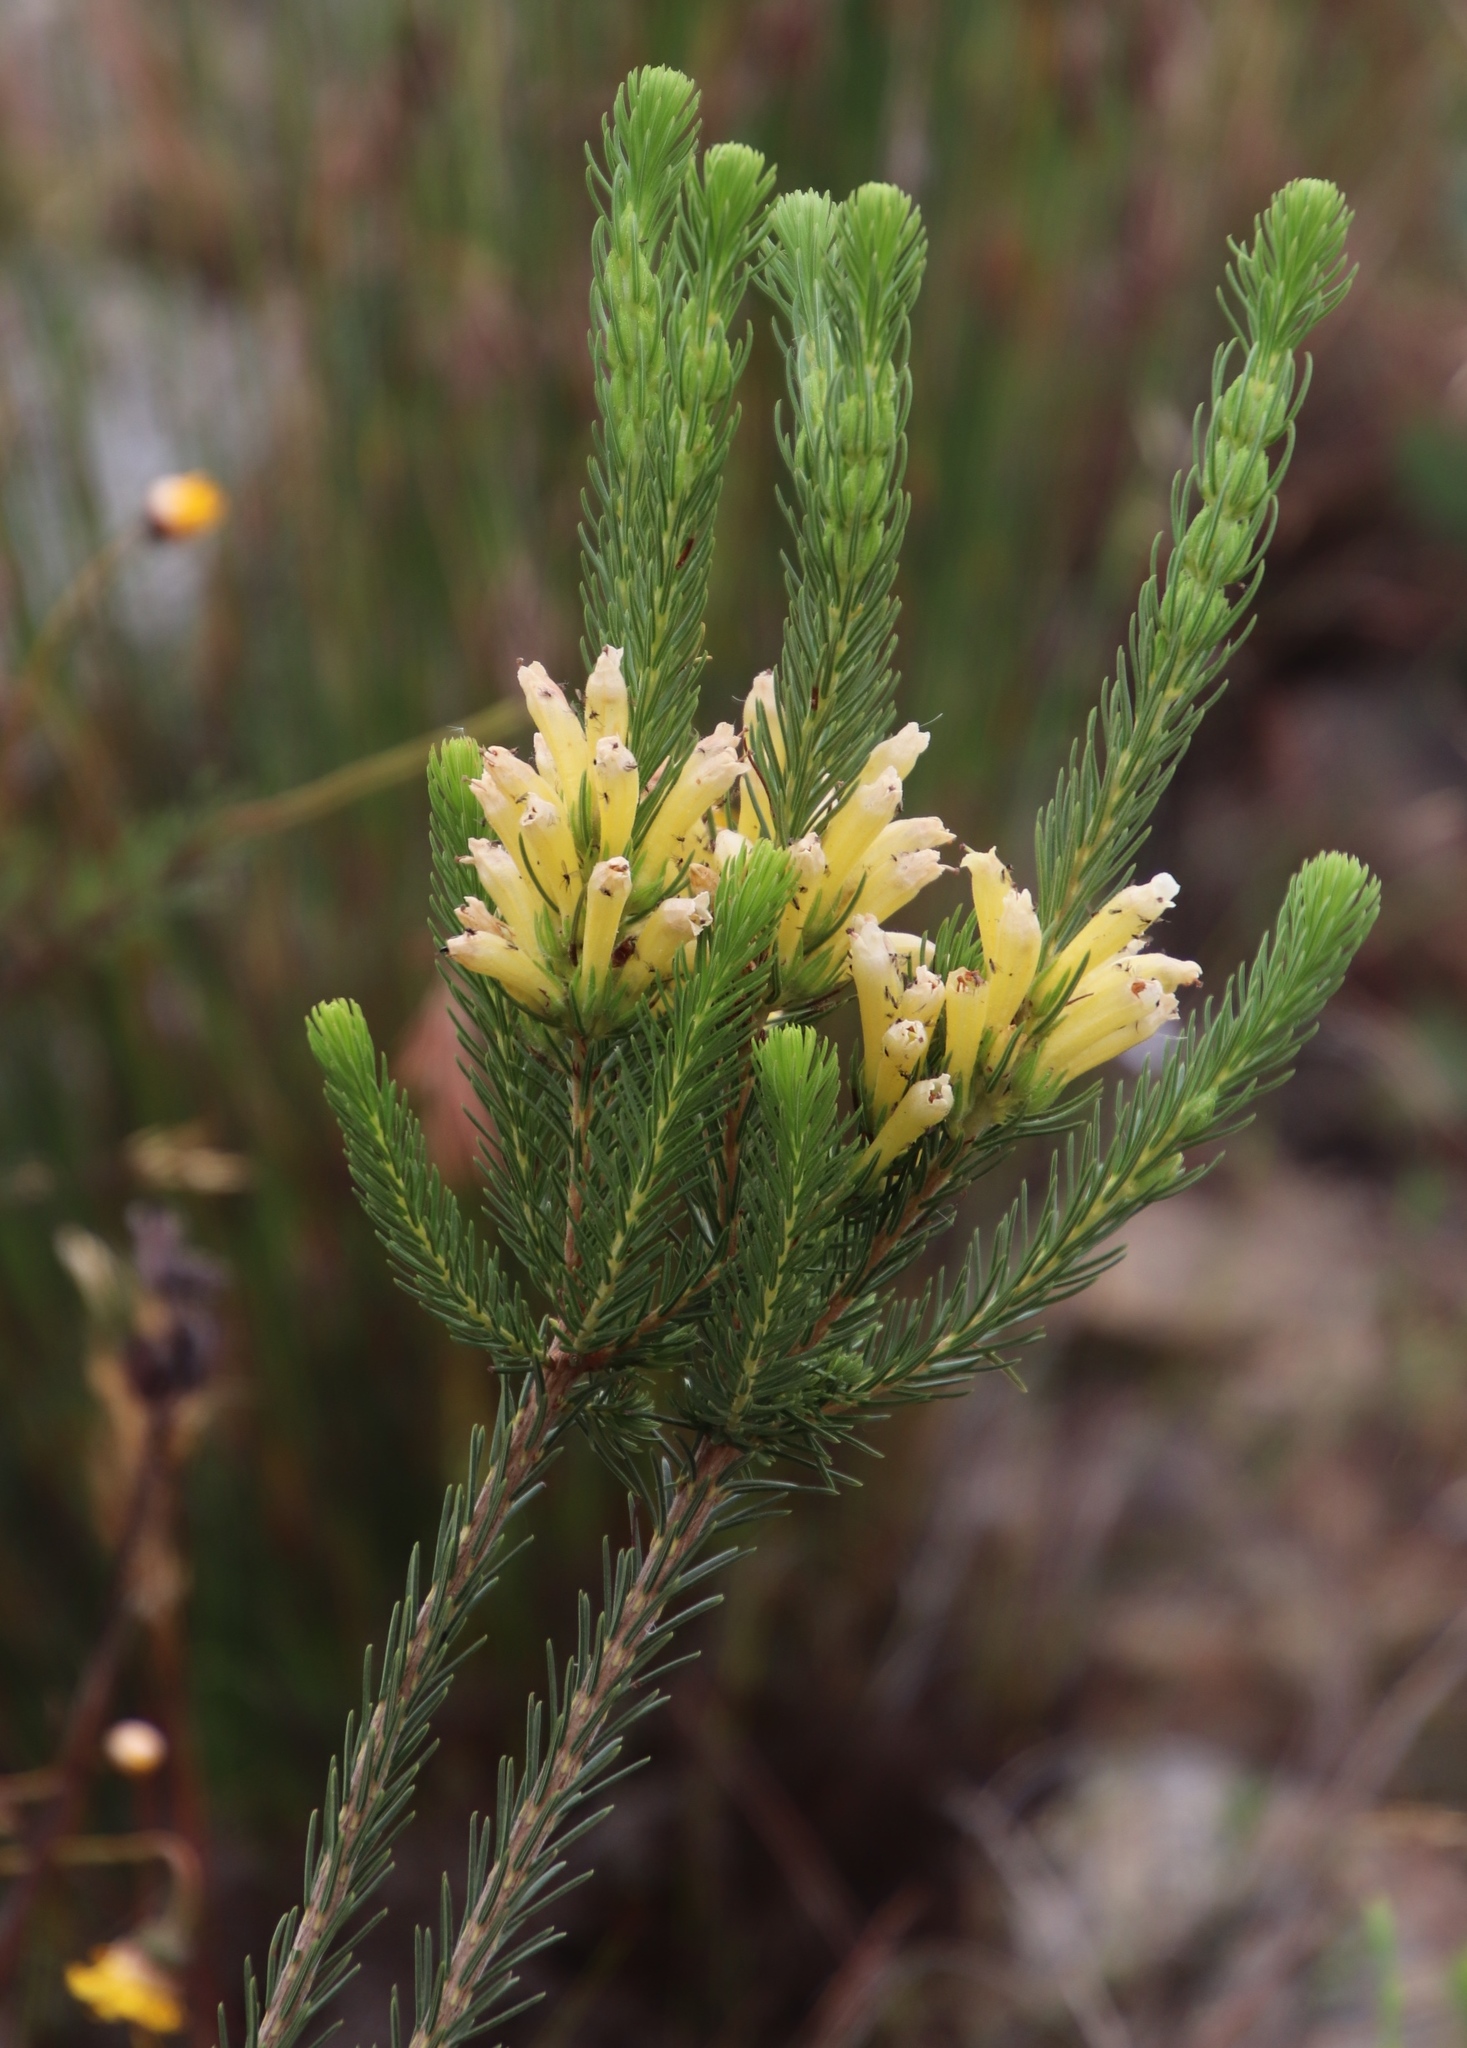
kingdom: Plantae
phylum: Tracheophyta
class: Magnoliopsida
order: Ericales
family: Ericaceae
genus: Erica
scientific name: Erica viscaria
